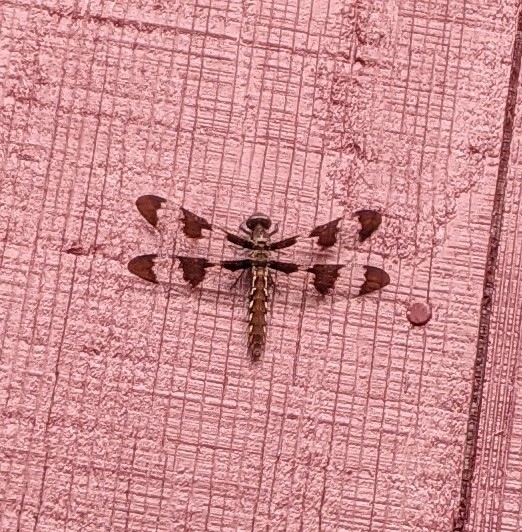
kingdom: Animalia
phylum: Arthropoda
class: Insecta
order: Odonata
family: Libellulidae
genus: Plathemis
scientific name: Plathemis lydia
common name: Common whitetail
